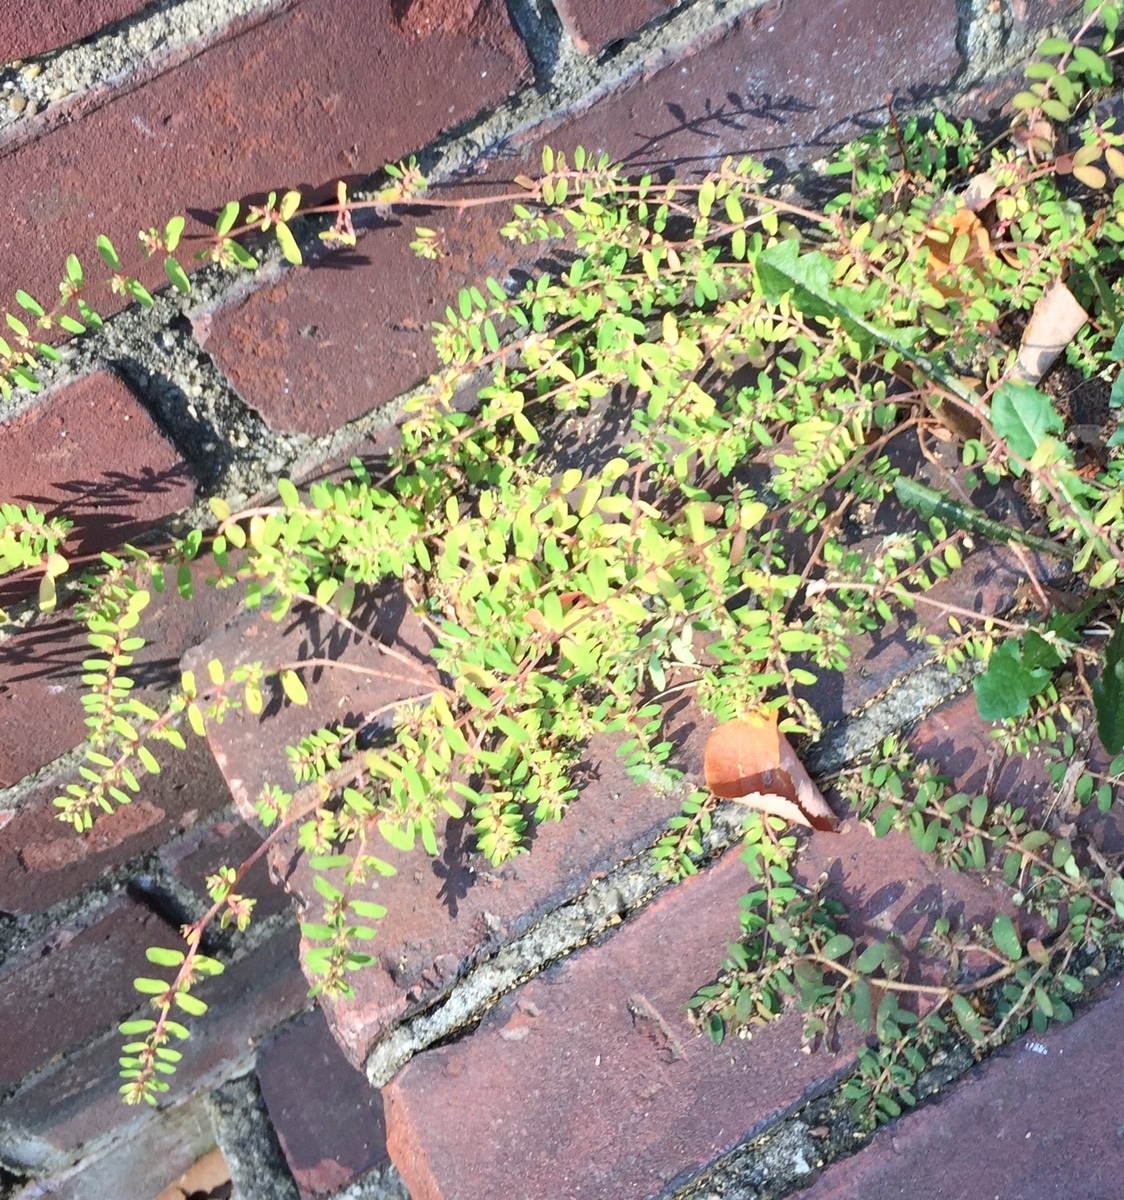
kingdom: Plantae
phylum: Tracheophyta
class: Magnoliopsida
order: Malpighiales
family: Euphorbiaceae
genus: Euphorbia
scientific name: Euphorbia maculata
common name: Spotted spurge
